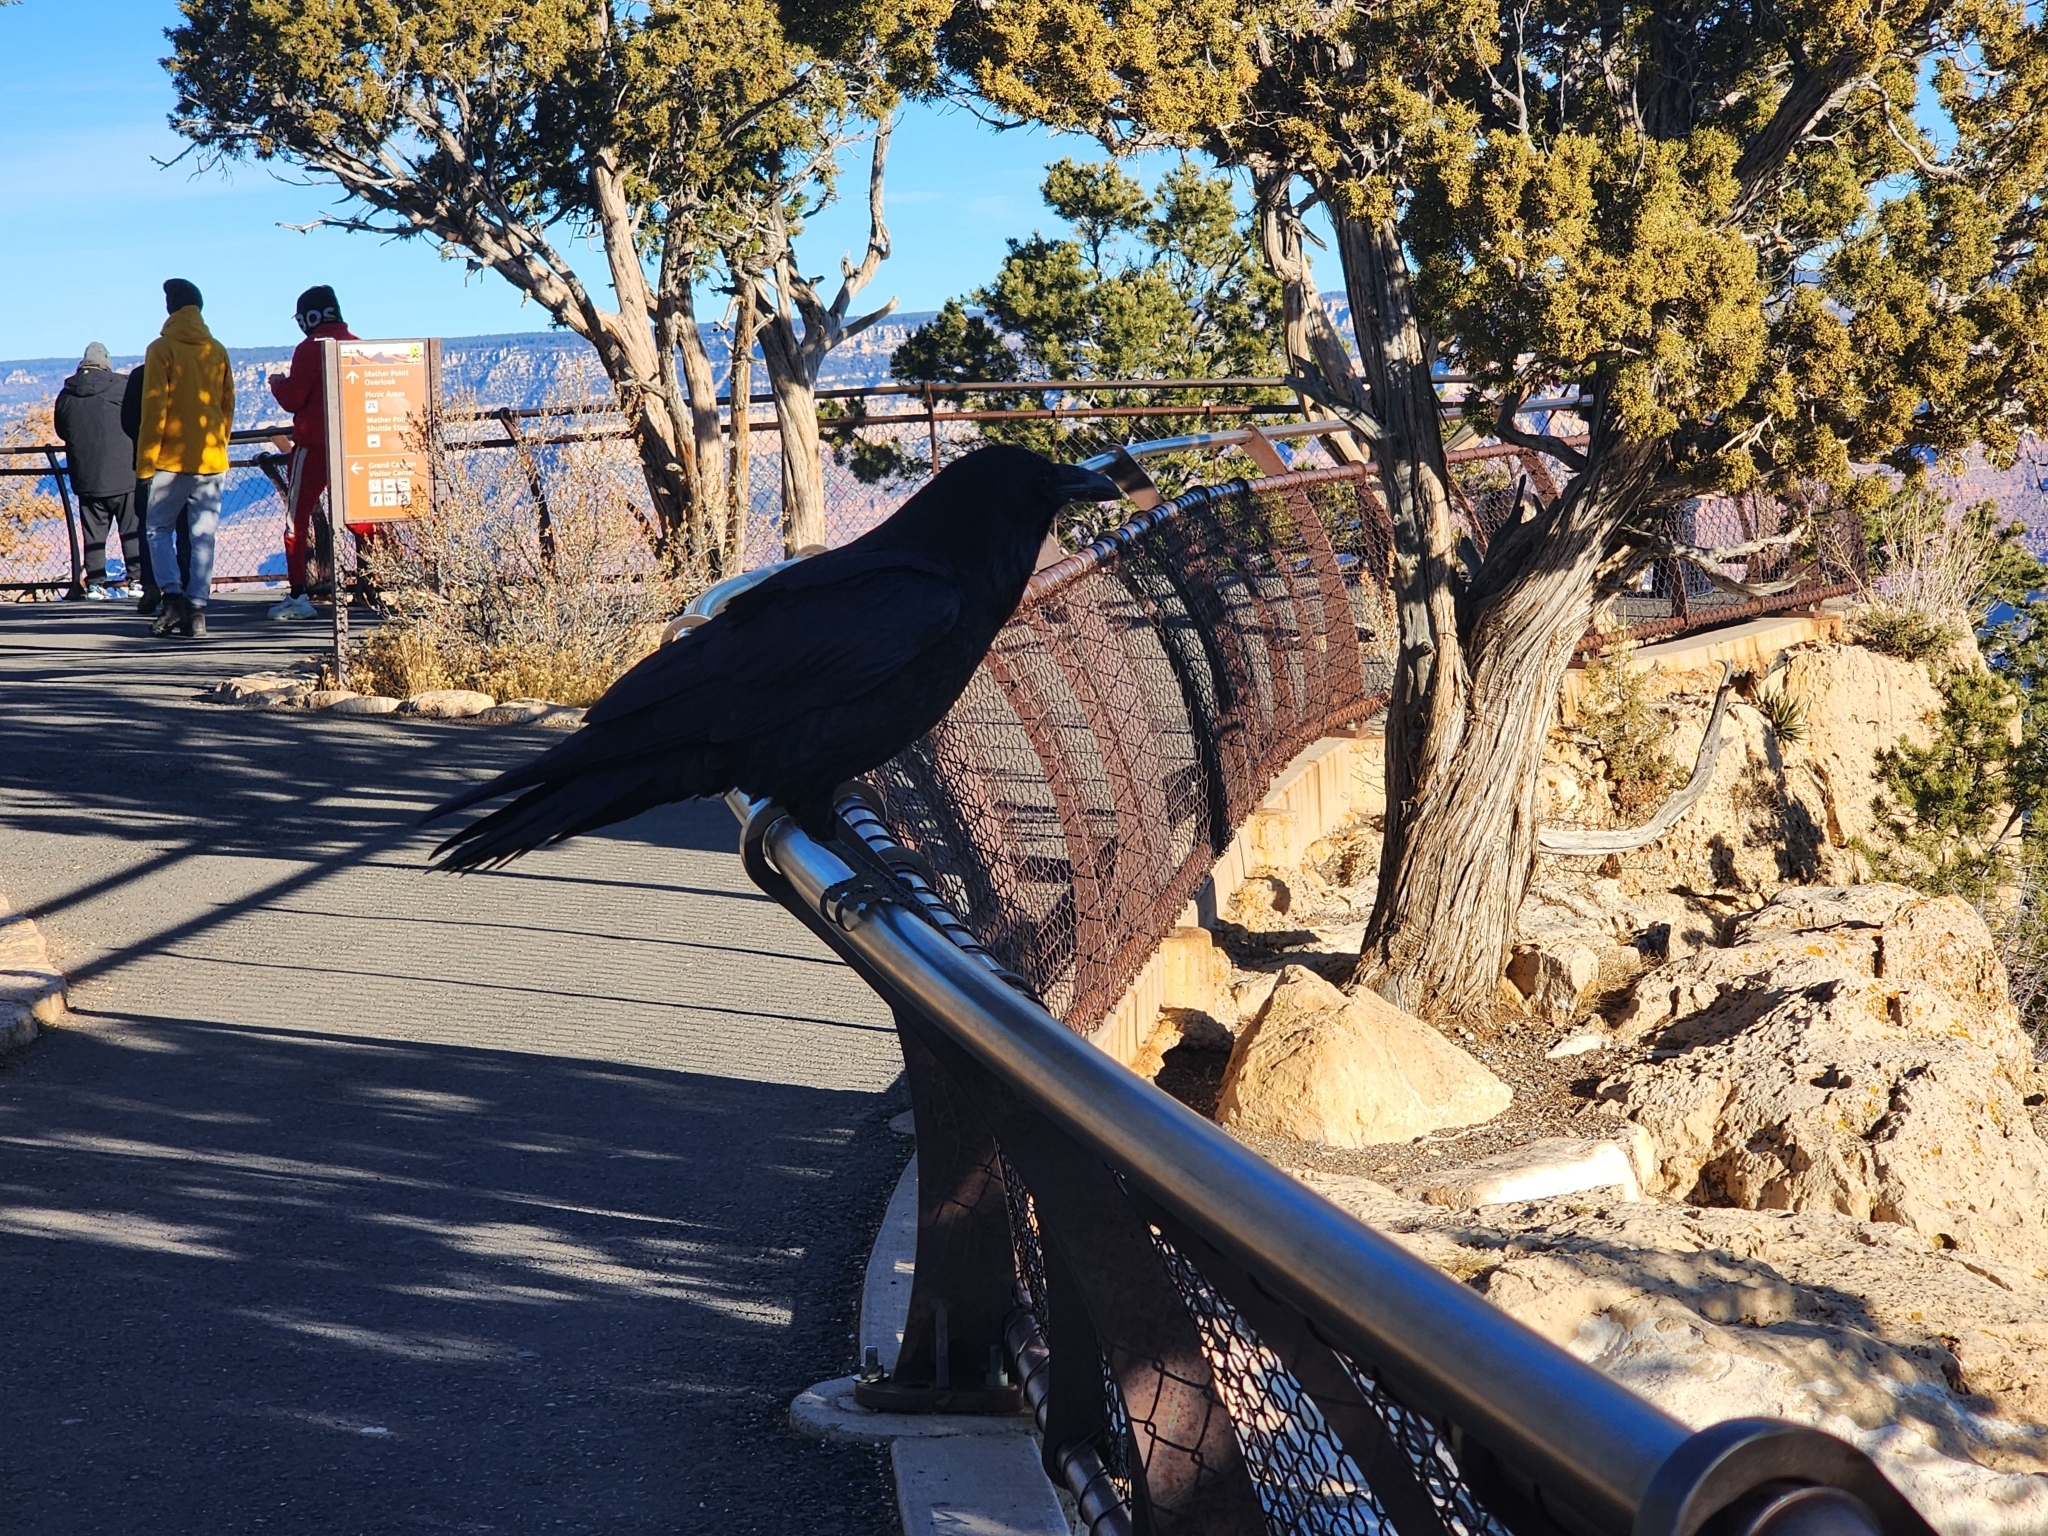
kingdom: Animalia
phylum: Chordata
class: Aves
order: Passeriformes
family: Corvidae
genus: Corvus
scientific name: Corvus corax
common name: Common raven
